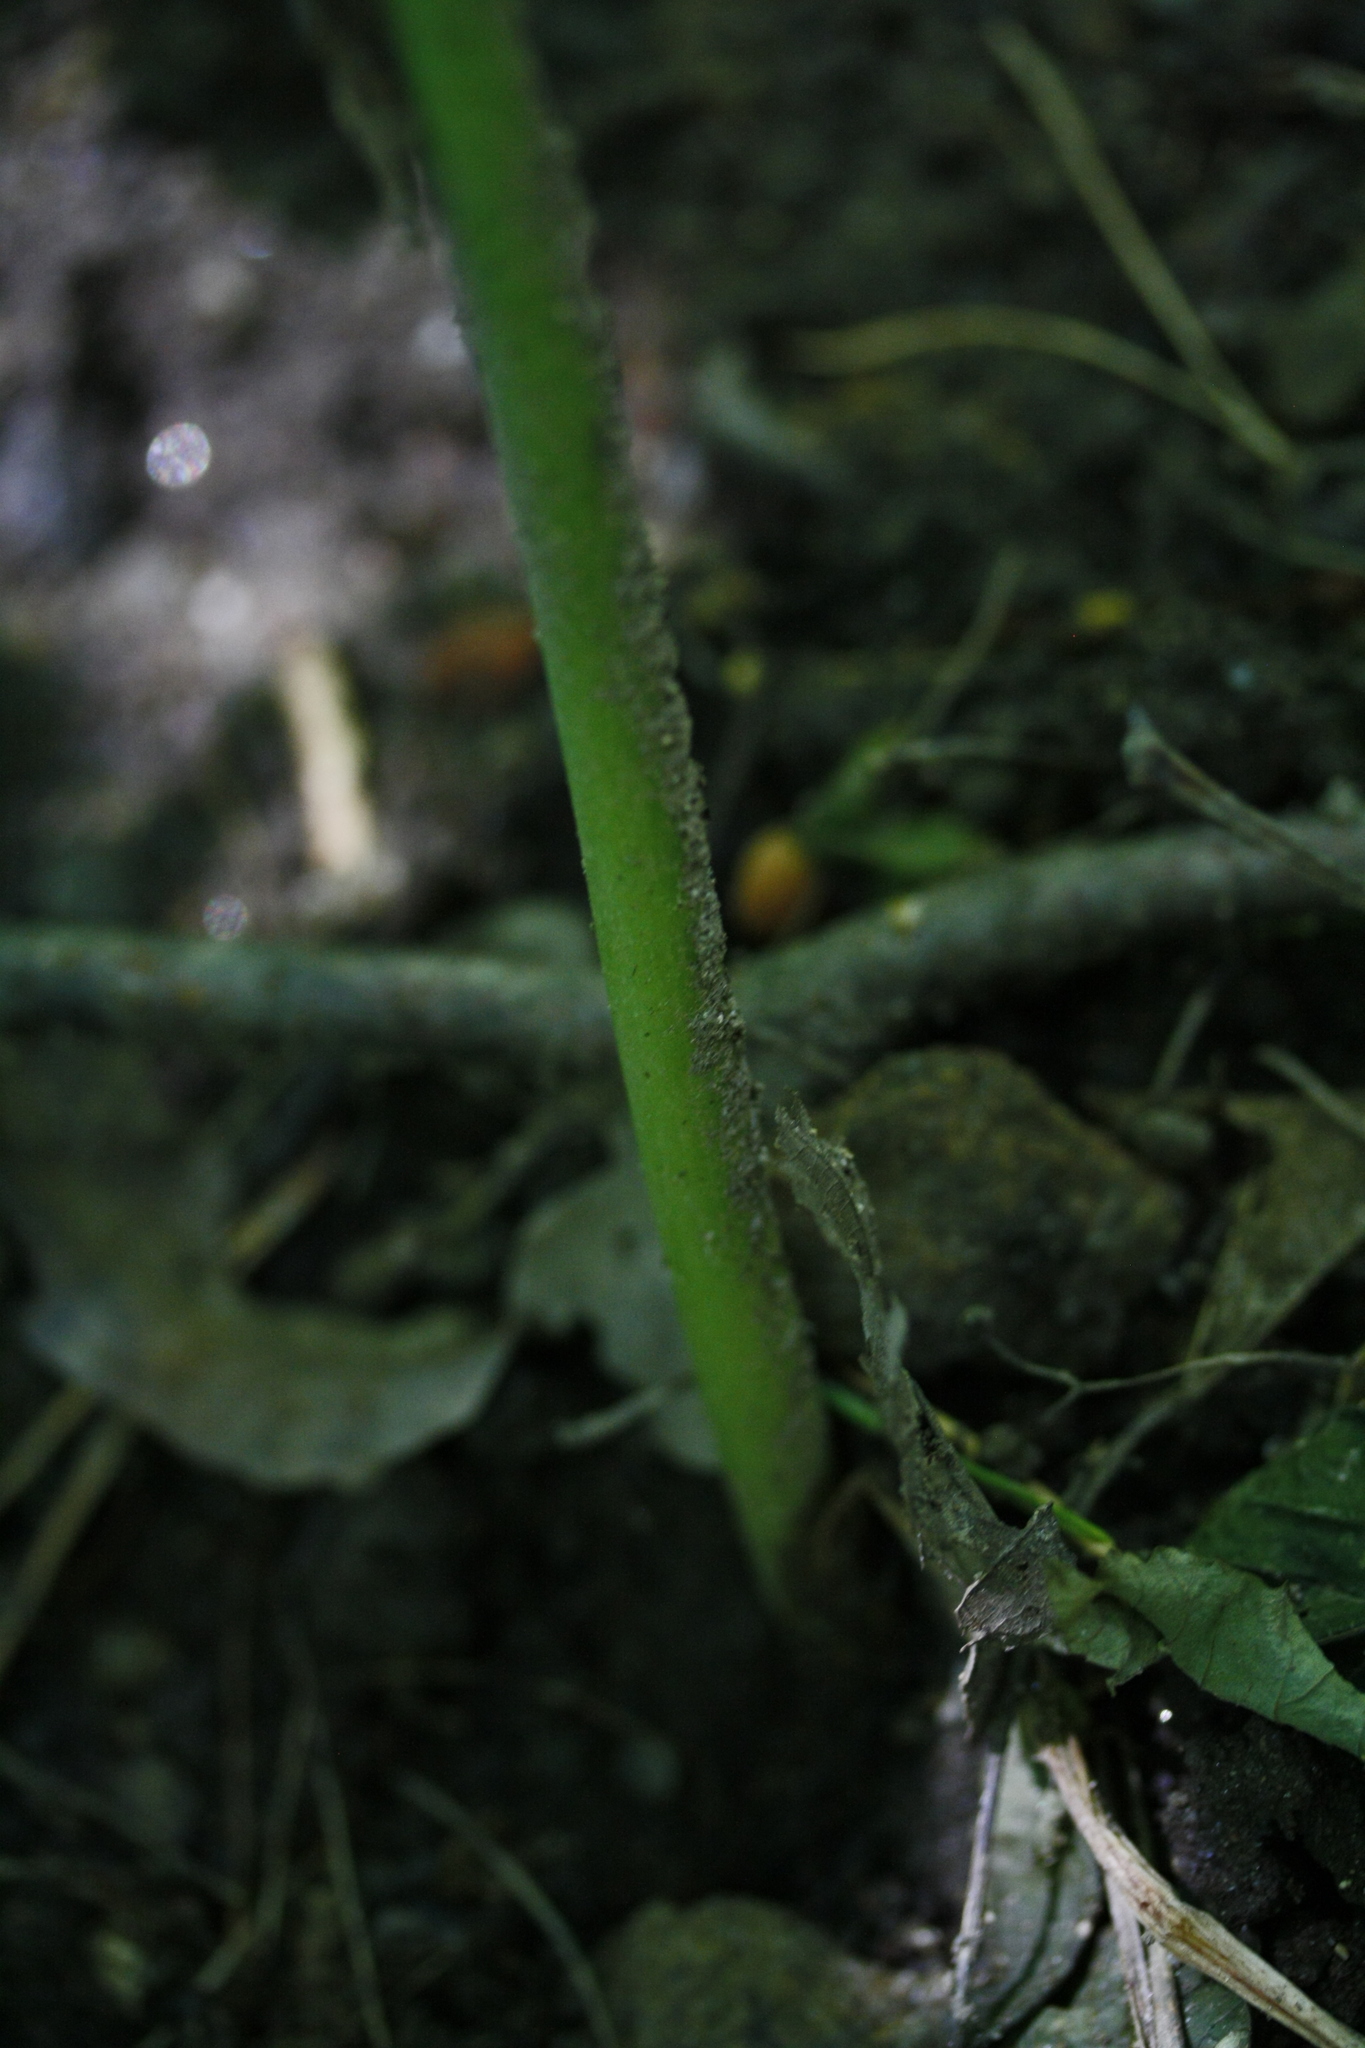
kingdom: Plantae
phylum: Tracheophyta
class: Liliopsida
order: Alismatales
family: Araceae
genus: Arum
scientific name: Arum maculatum
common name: Lords-and-ladies
